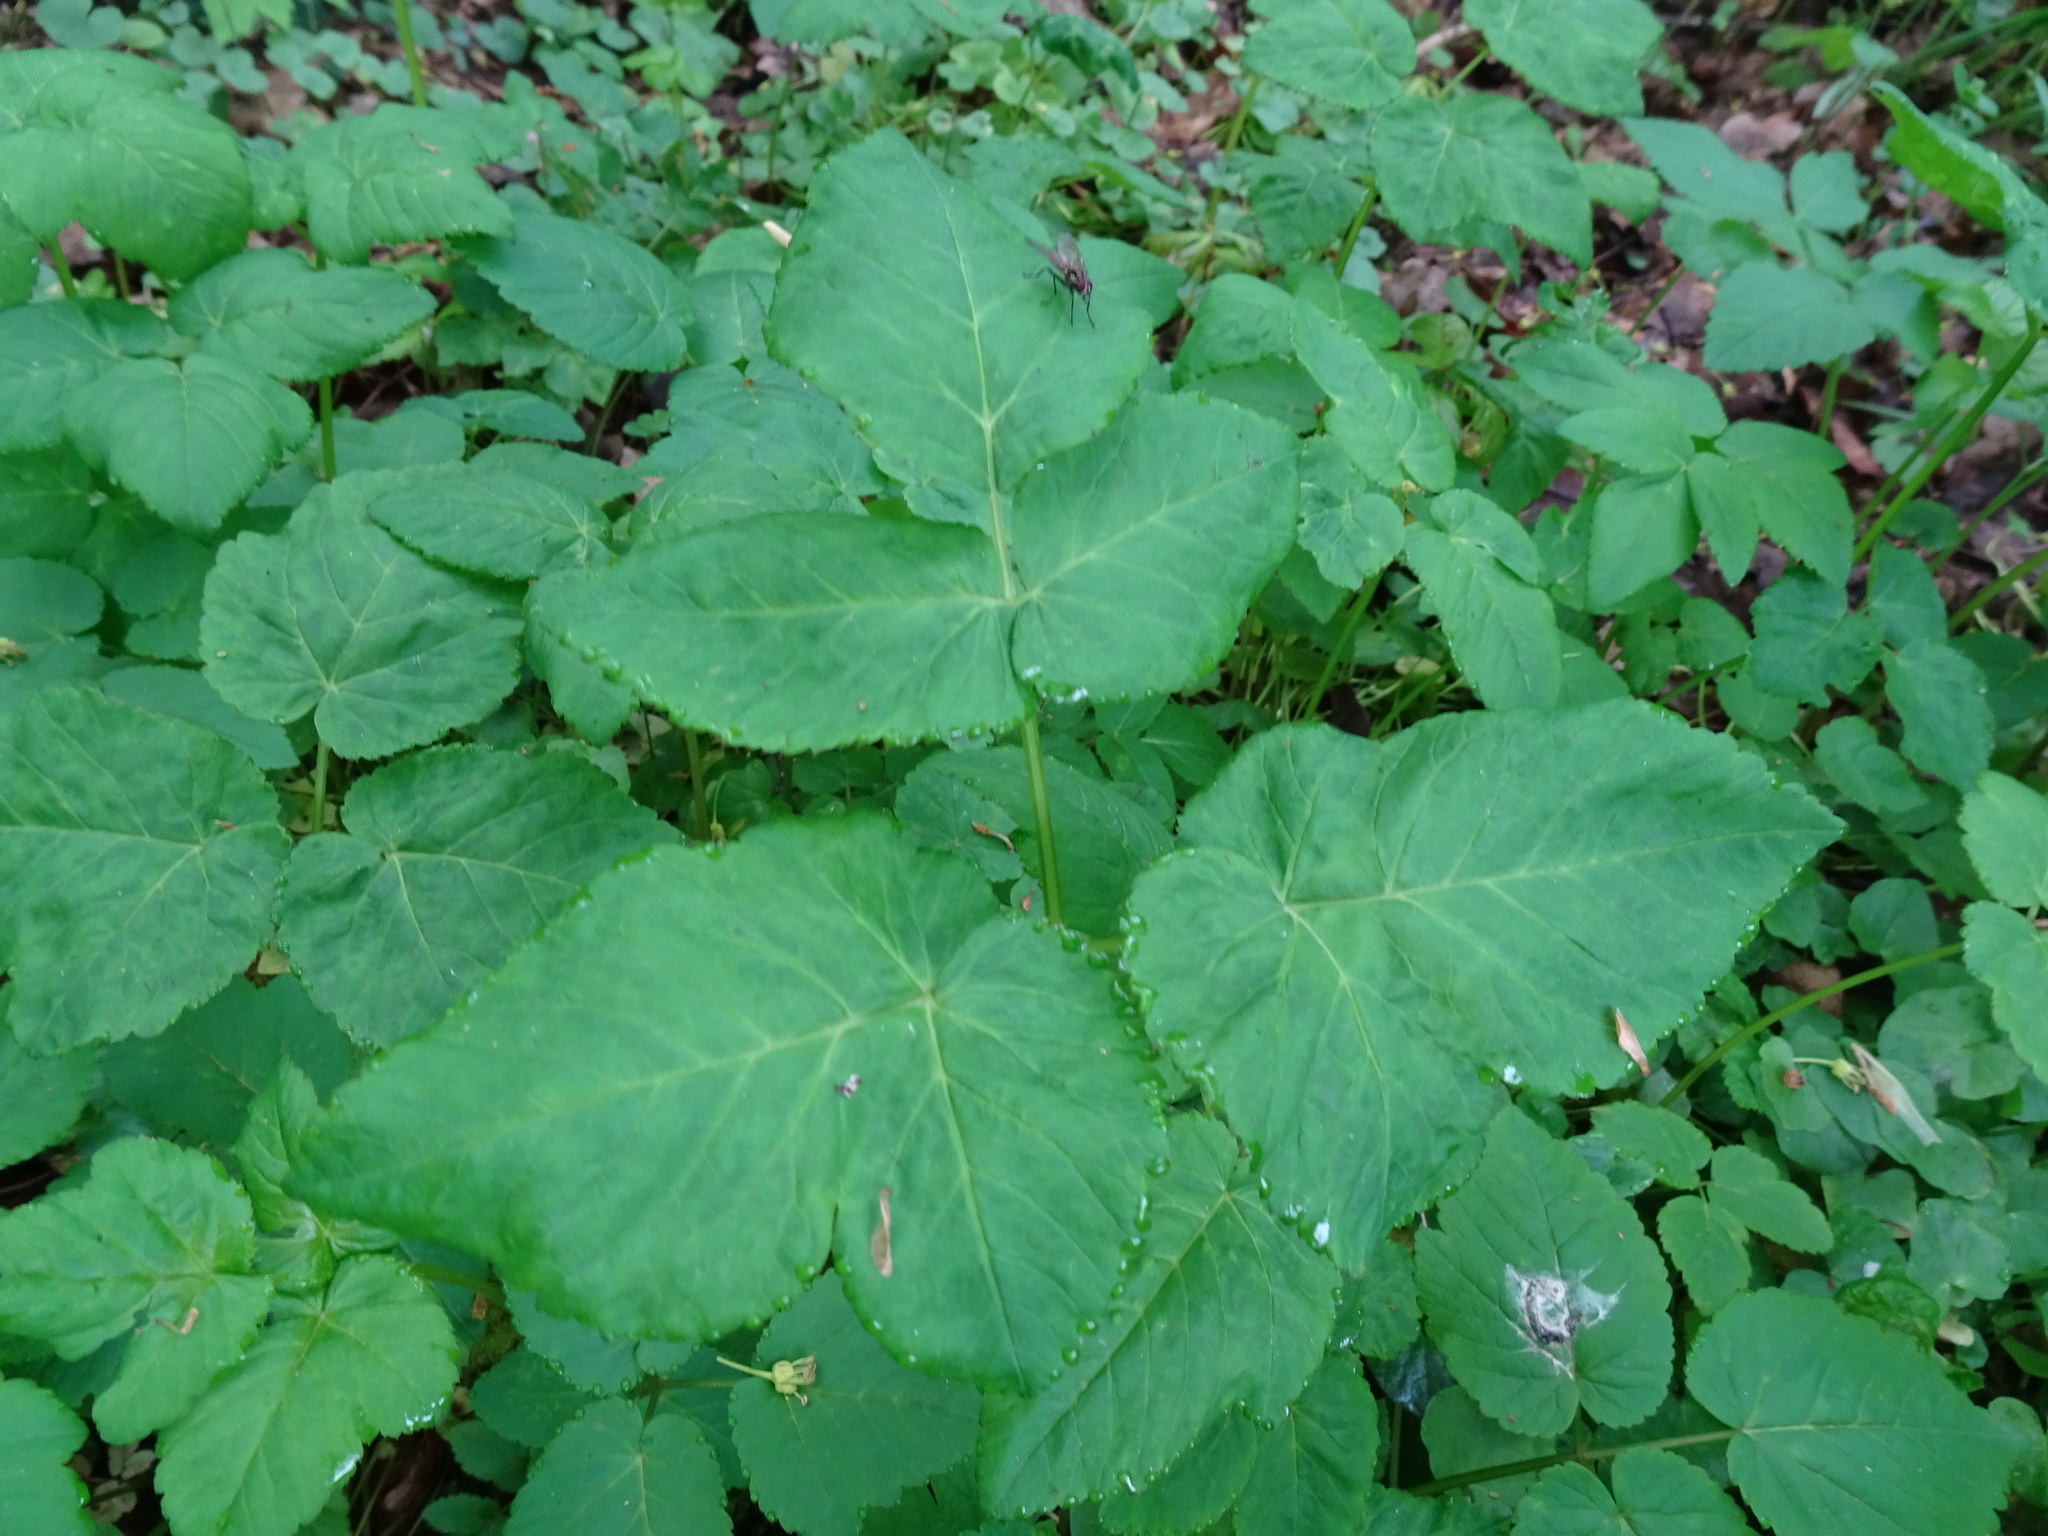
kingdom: Plantae
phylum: Tracheophyta
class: Magnoliopsida
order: Apiales
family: Apiaceae
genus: Aegopodium
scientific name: Aegopodium podagraria
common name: Ground-elder
